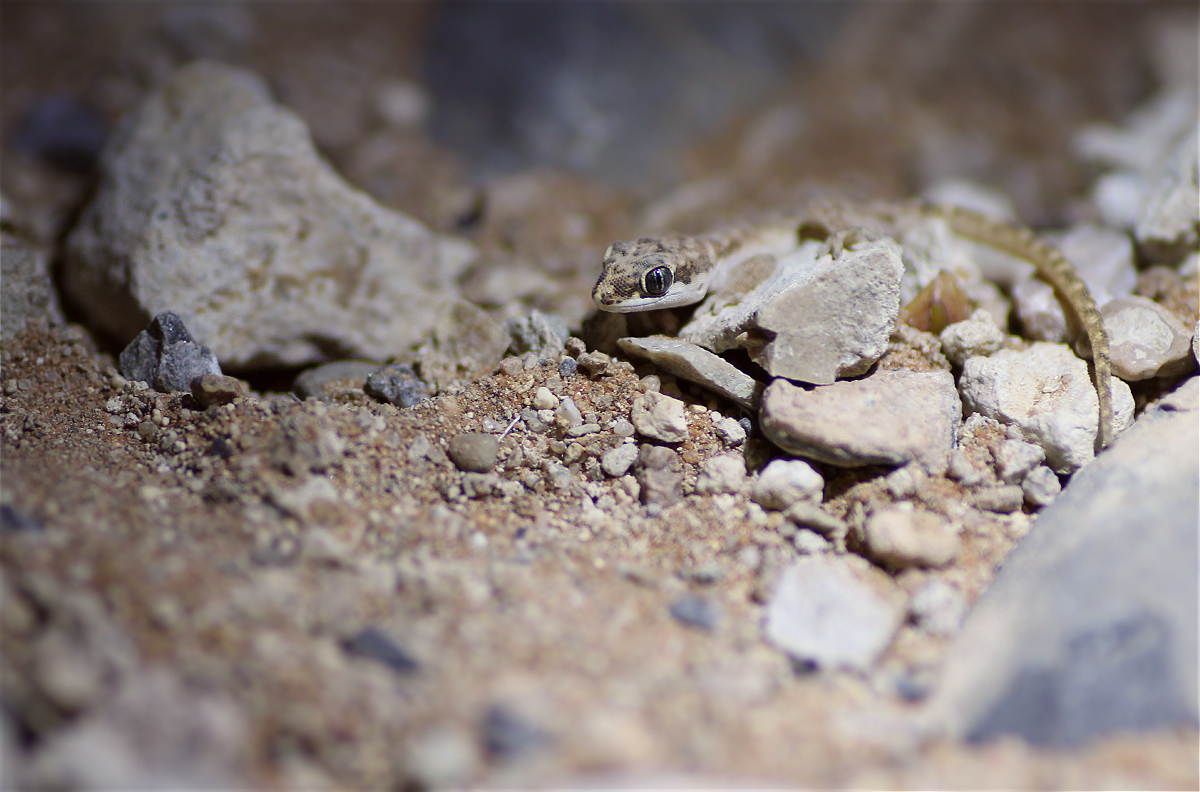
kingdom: Animalia
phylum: Chordata
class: Squamata
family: Gekkonidae
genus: Pachydactylus
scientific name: Pachydactylus punctatus
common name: Pointed thick-toed gecko
